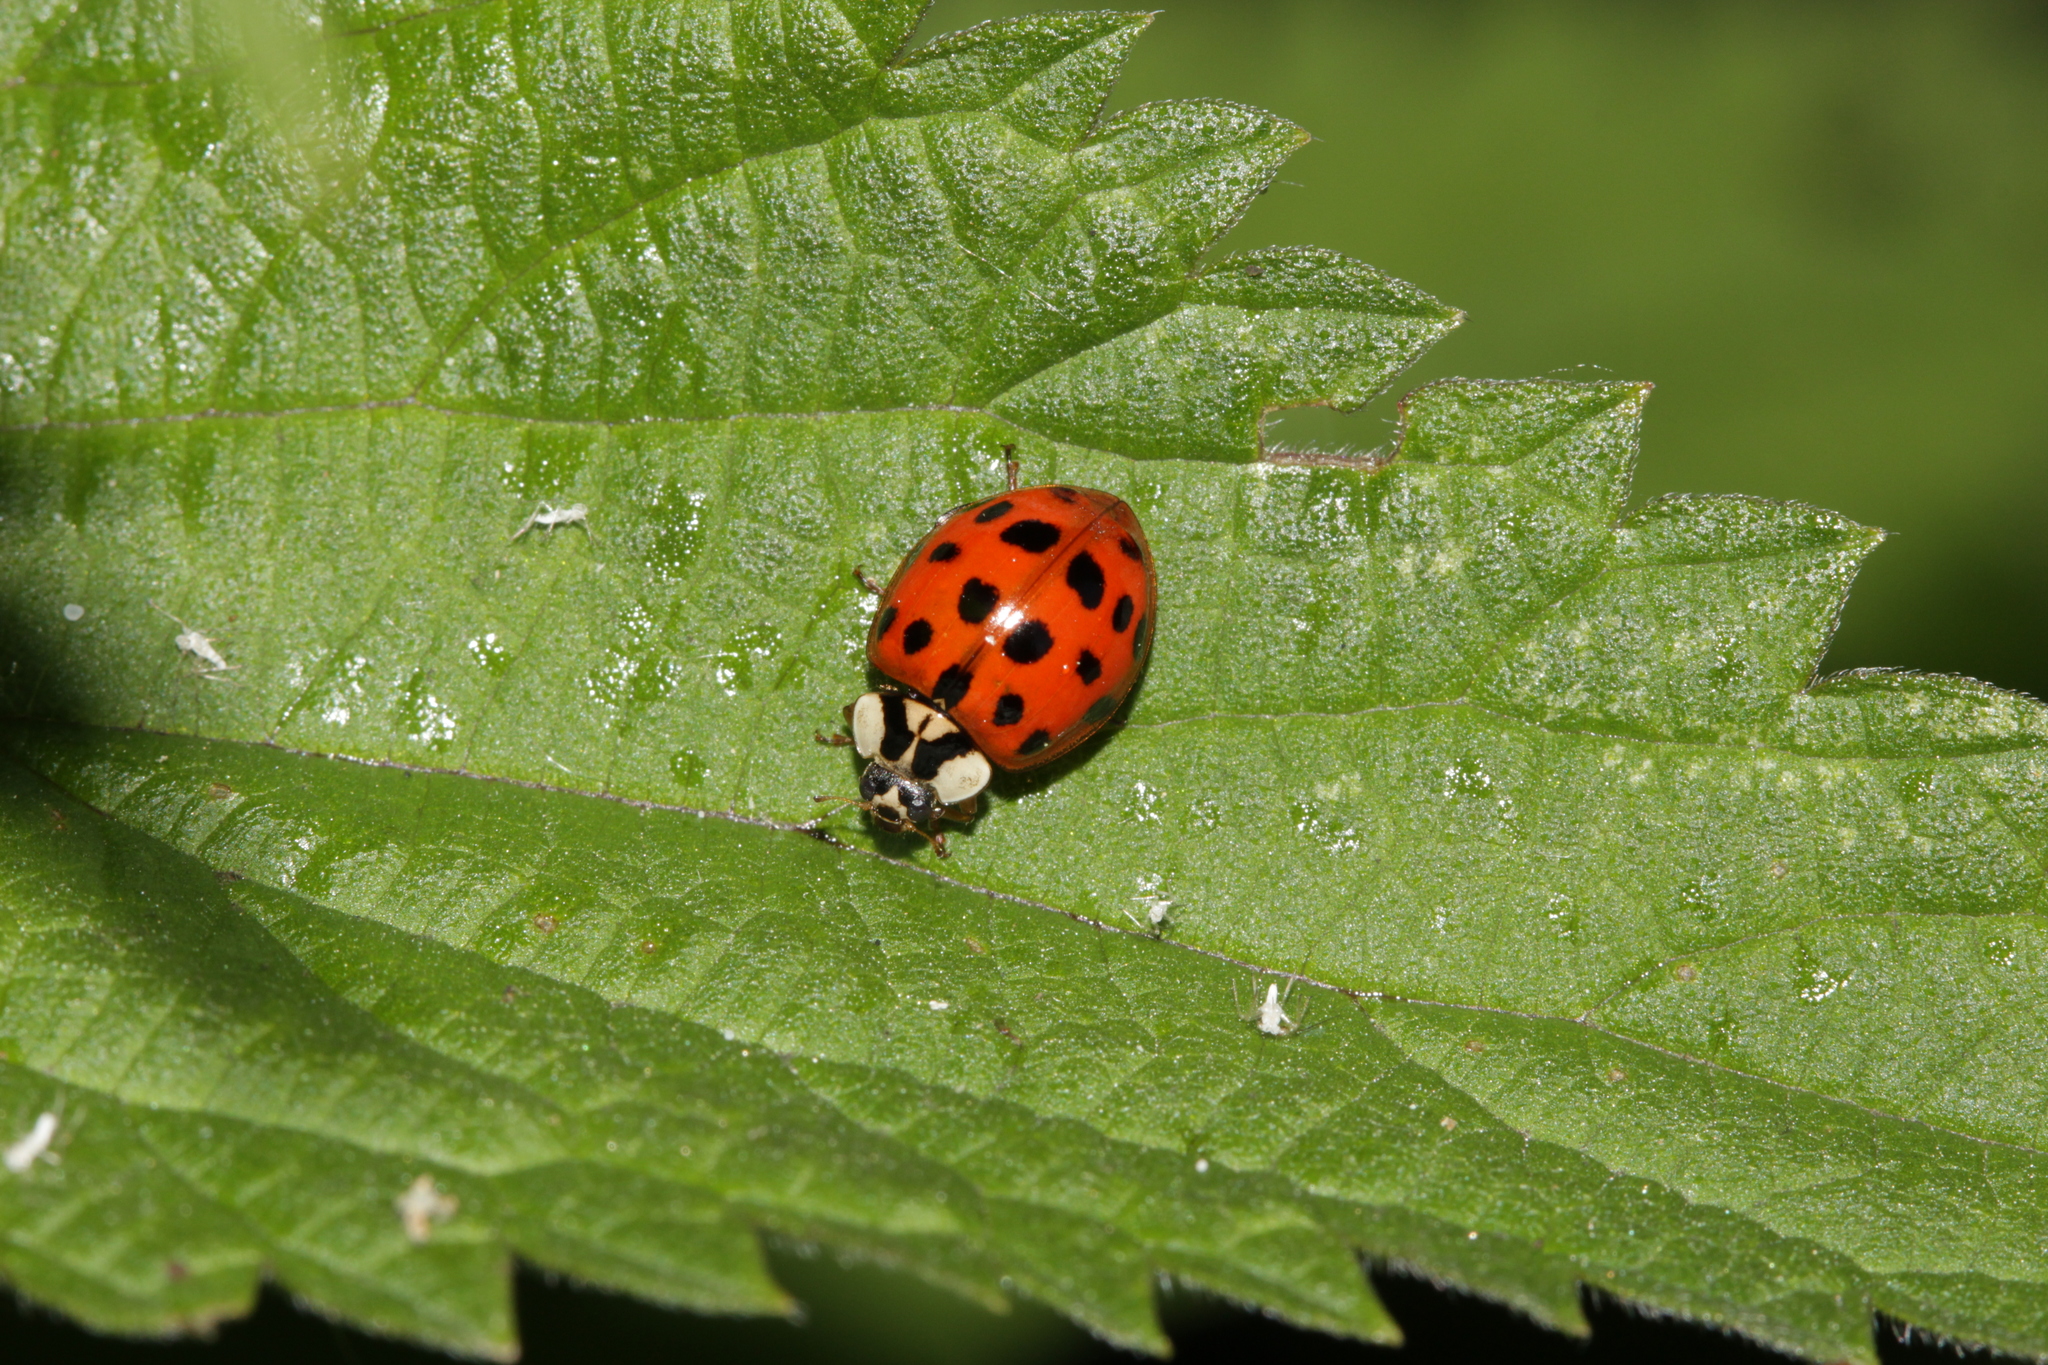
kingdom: Animalia
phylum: Arthropoda
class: Insecta
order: Coleoptera
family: Coccinellidae
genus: Harmonia
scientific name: Harmonia axyridis
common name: Harlequin ladybird
